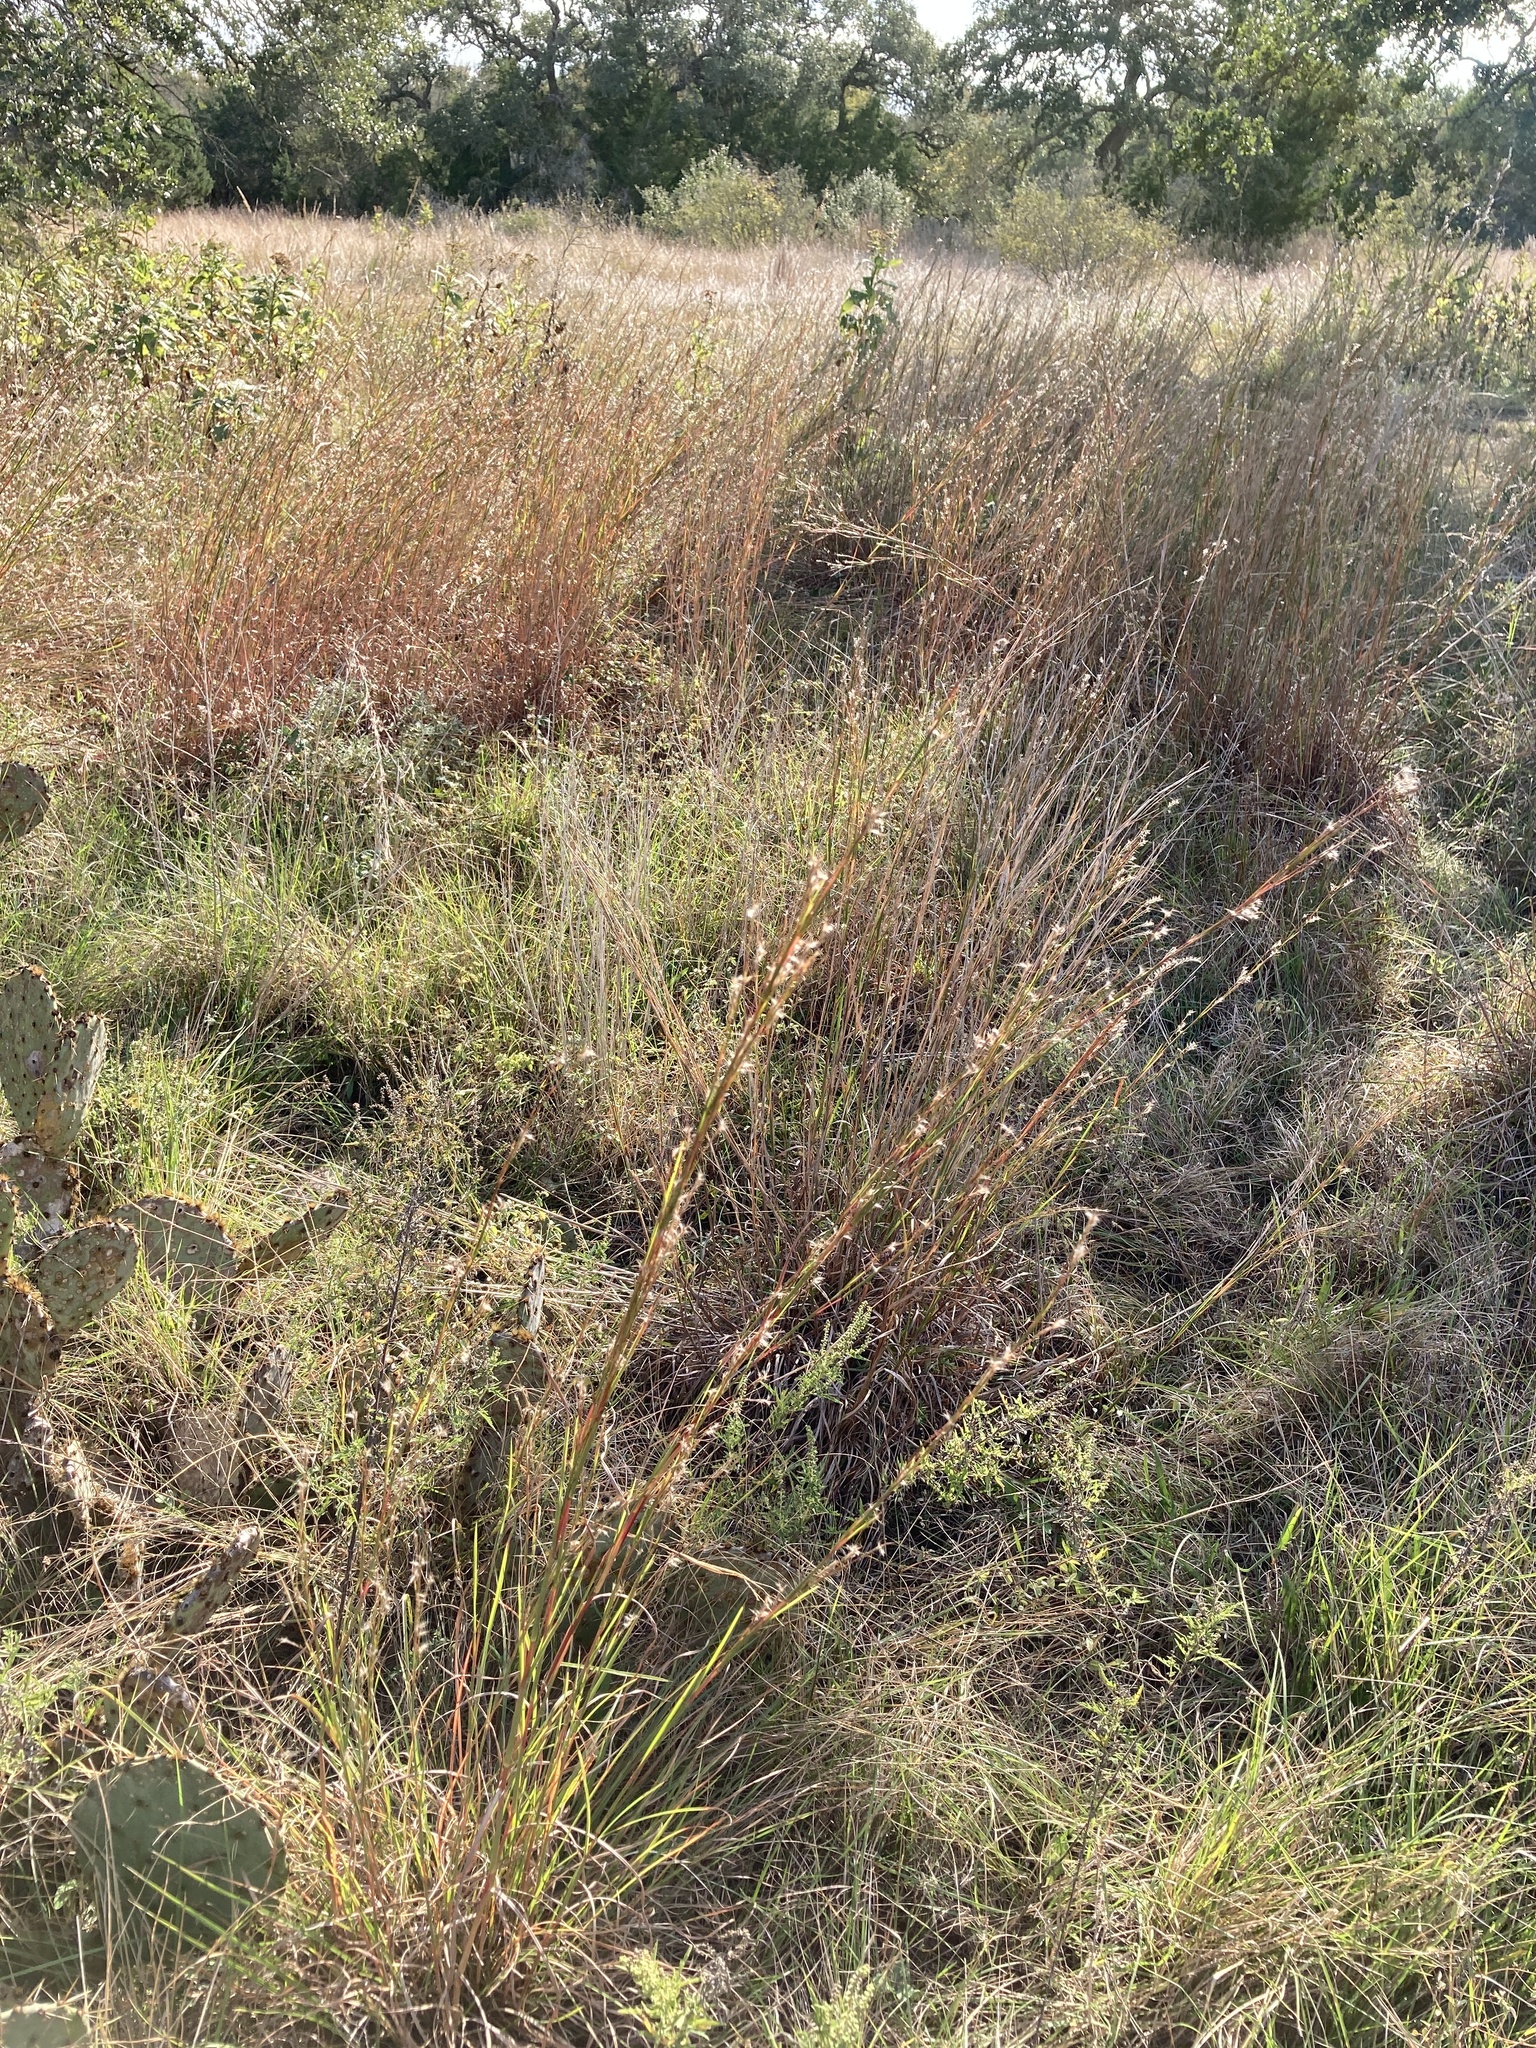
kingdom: Plantae
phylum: Tracheophyta
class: Liliopsida
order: Poales
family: Poaceae
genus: Schizachyrium
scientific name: Schizachyrium scoparium
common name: Little bluestem
